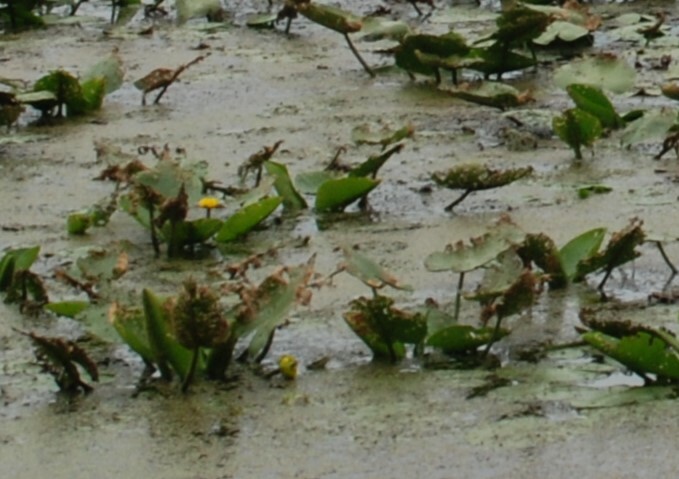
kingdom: Plantae
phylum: Tracheophyta
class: Magnoliopsida
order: Nymphaeales
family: Nymphaeaceae
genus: Nuphar
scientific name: Nuphar lutea
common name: Yellow water-lily
